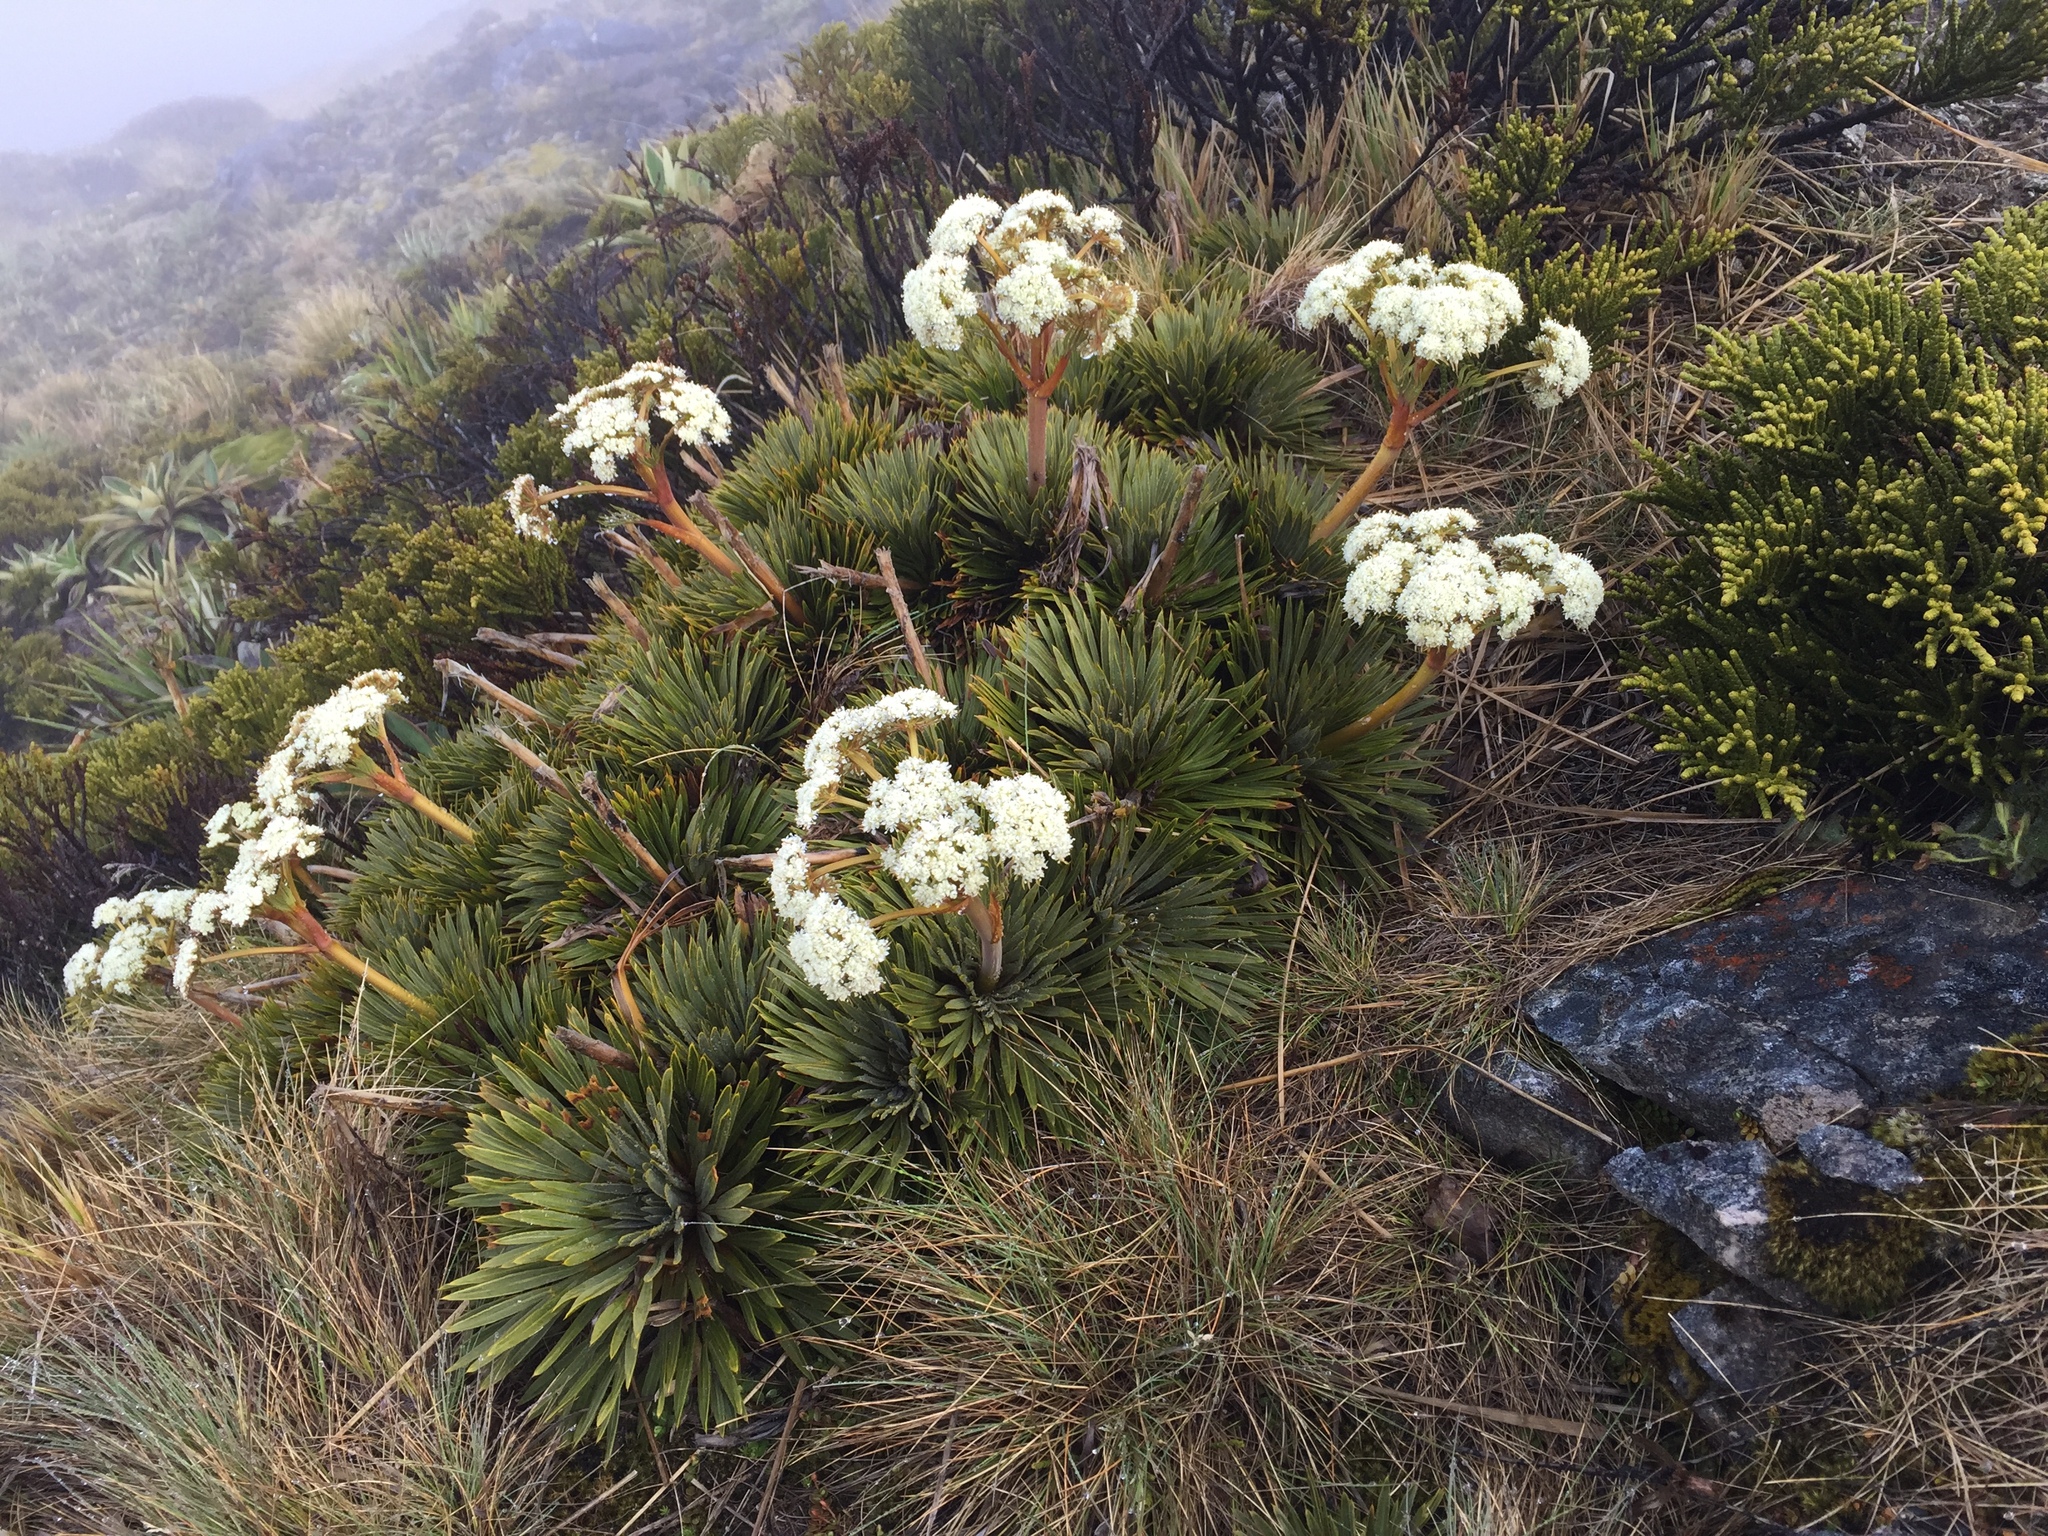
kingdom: Plantae
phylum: Tracheophyta
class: Magnoliopsida
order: Apiales
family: Apiaceae
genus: Aciphylla
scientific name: Aciphylla congesta
